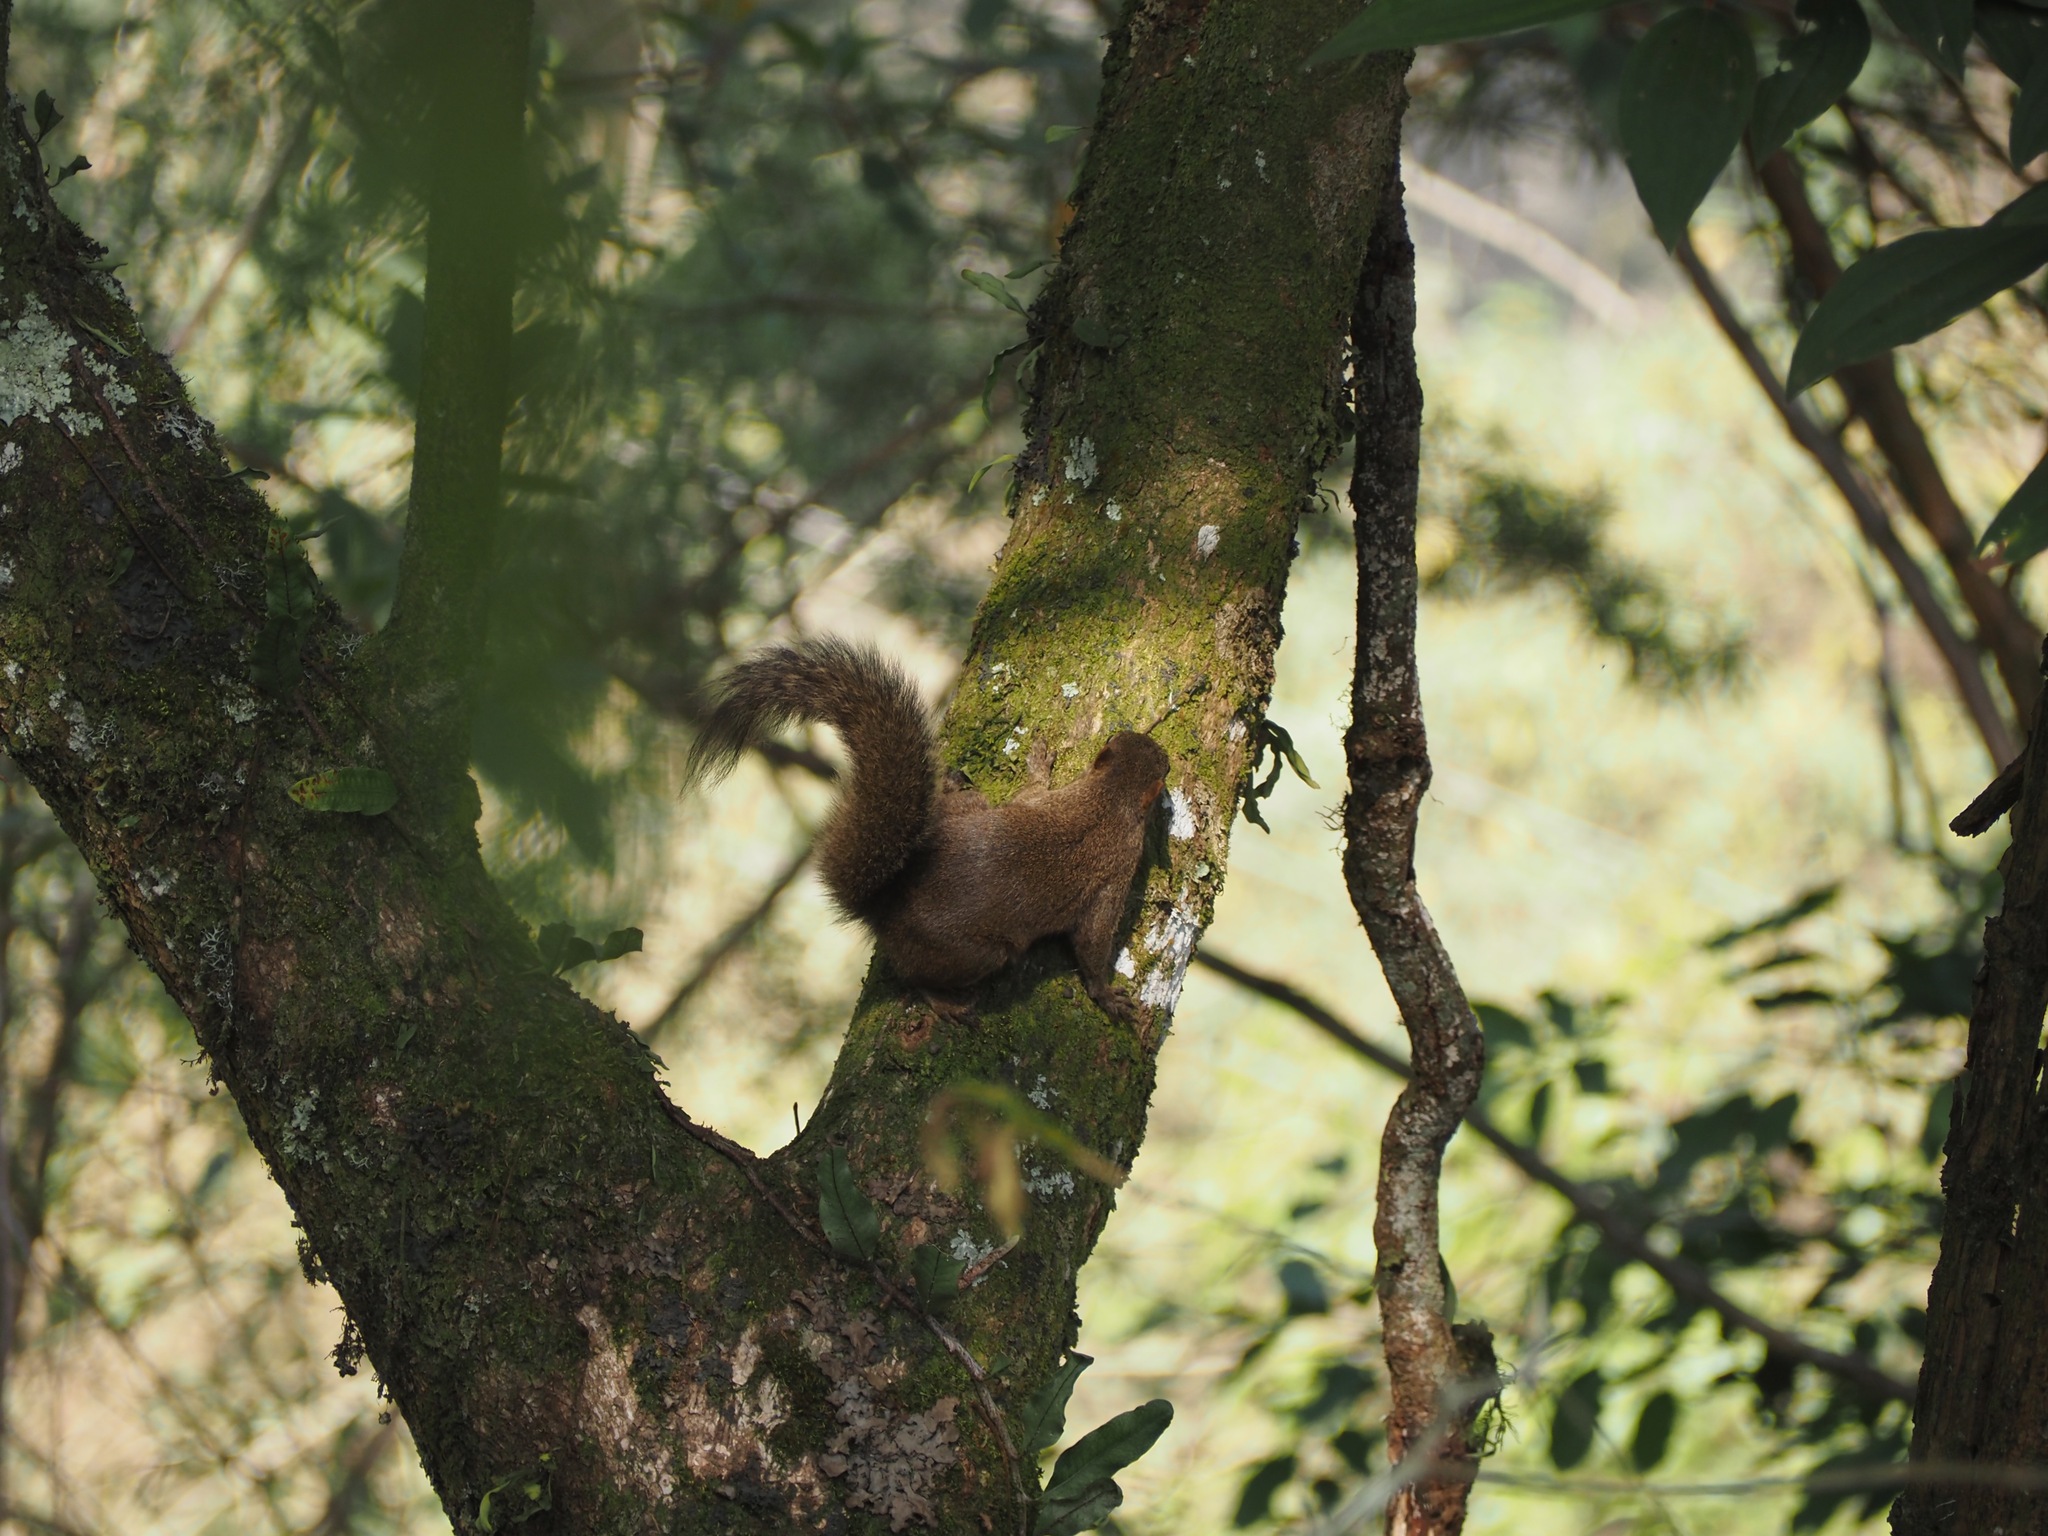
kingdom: Animalia
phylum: Chordata
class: Mammalia
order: Rodentia
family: Sciuridae
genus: Sciurus
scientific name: Sciurus aestuans
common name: Guianan squirrel
